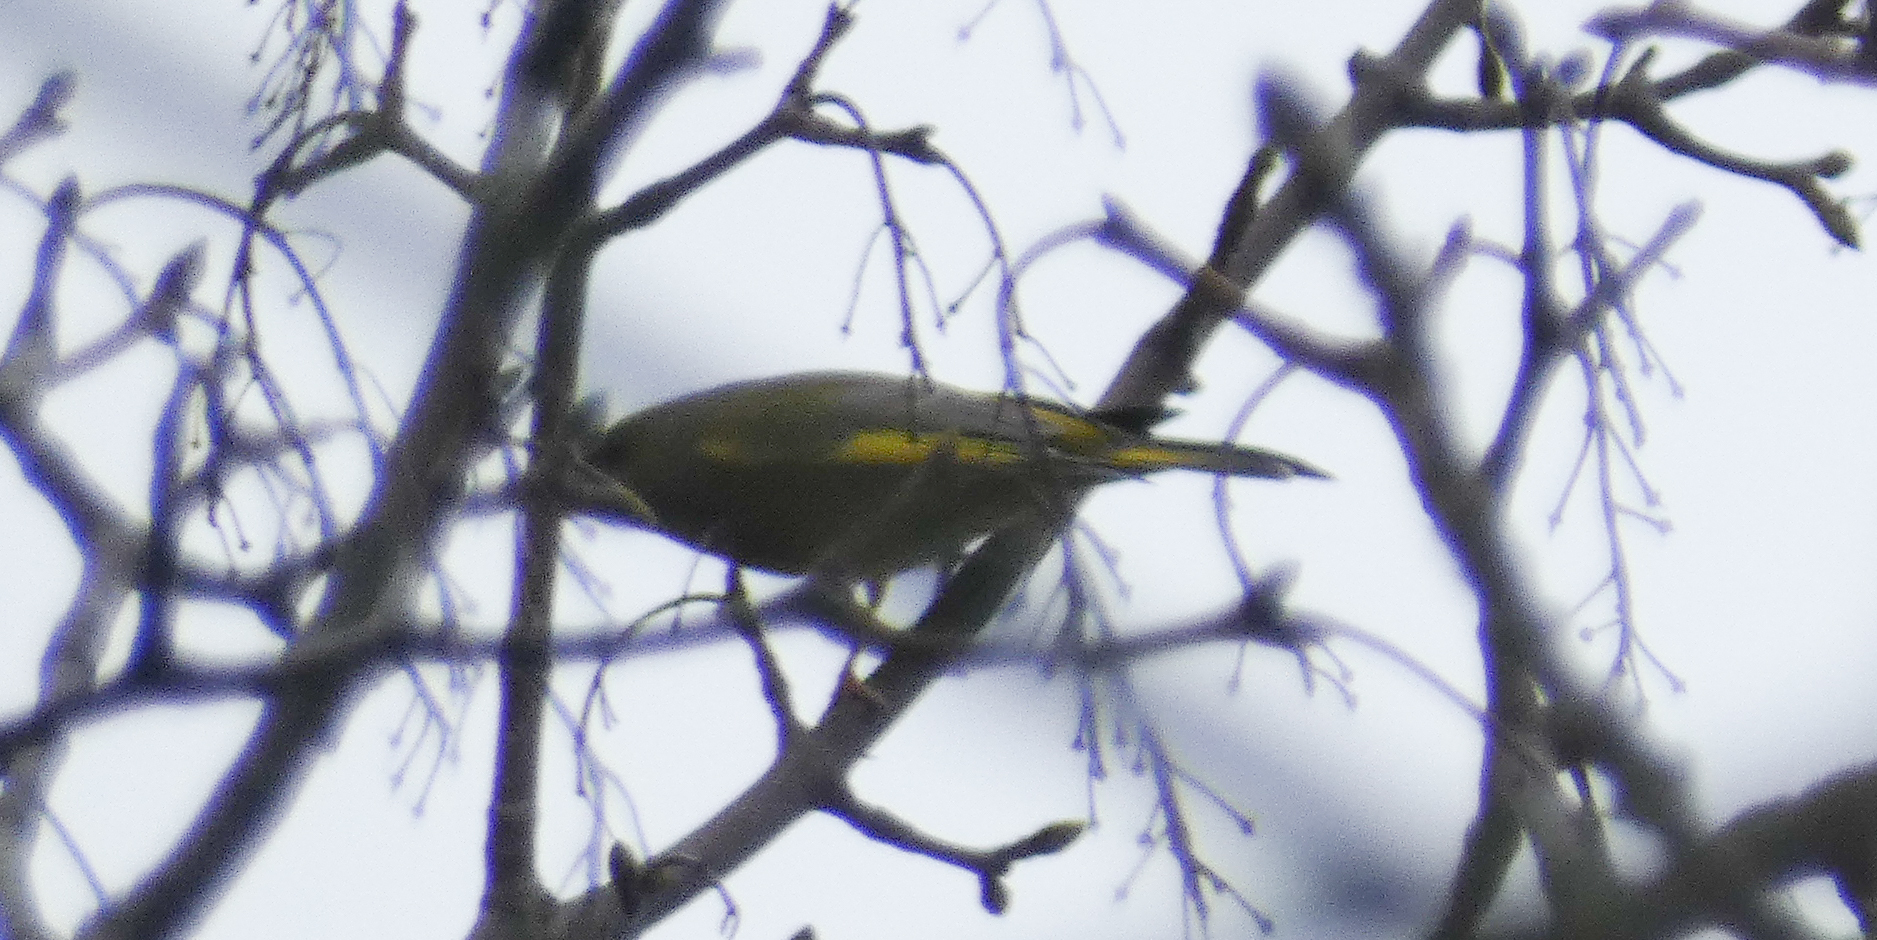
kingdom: Plantae
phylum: Tracheophyta
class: Liliopsida
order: Poales
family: Poaceae
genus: Chloris
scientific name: Chloris chloris
